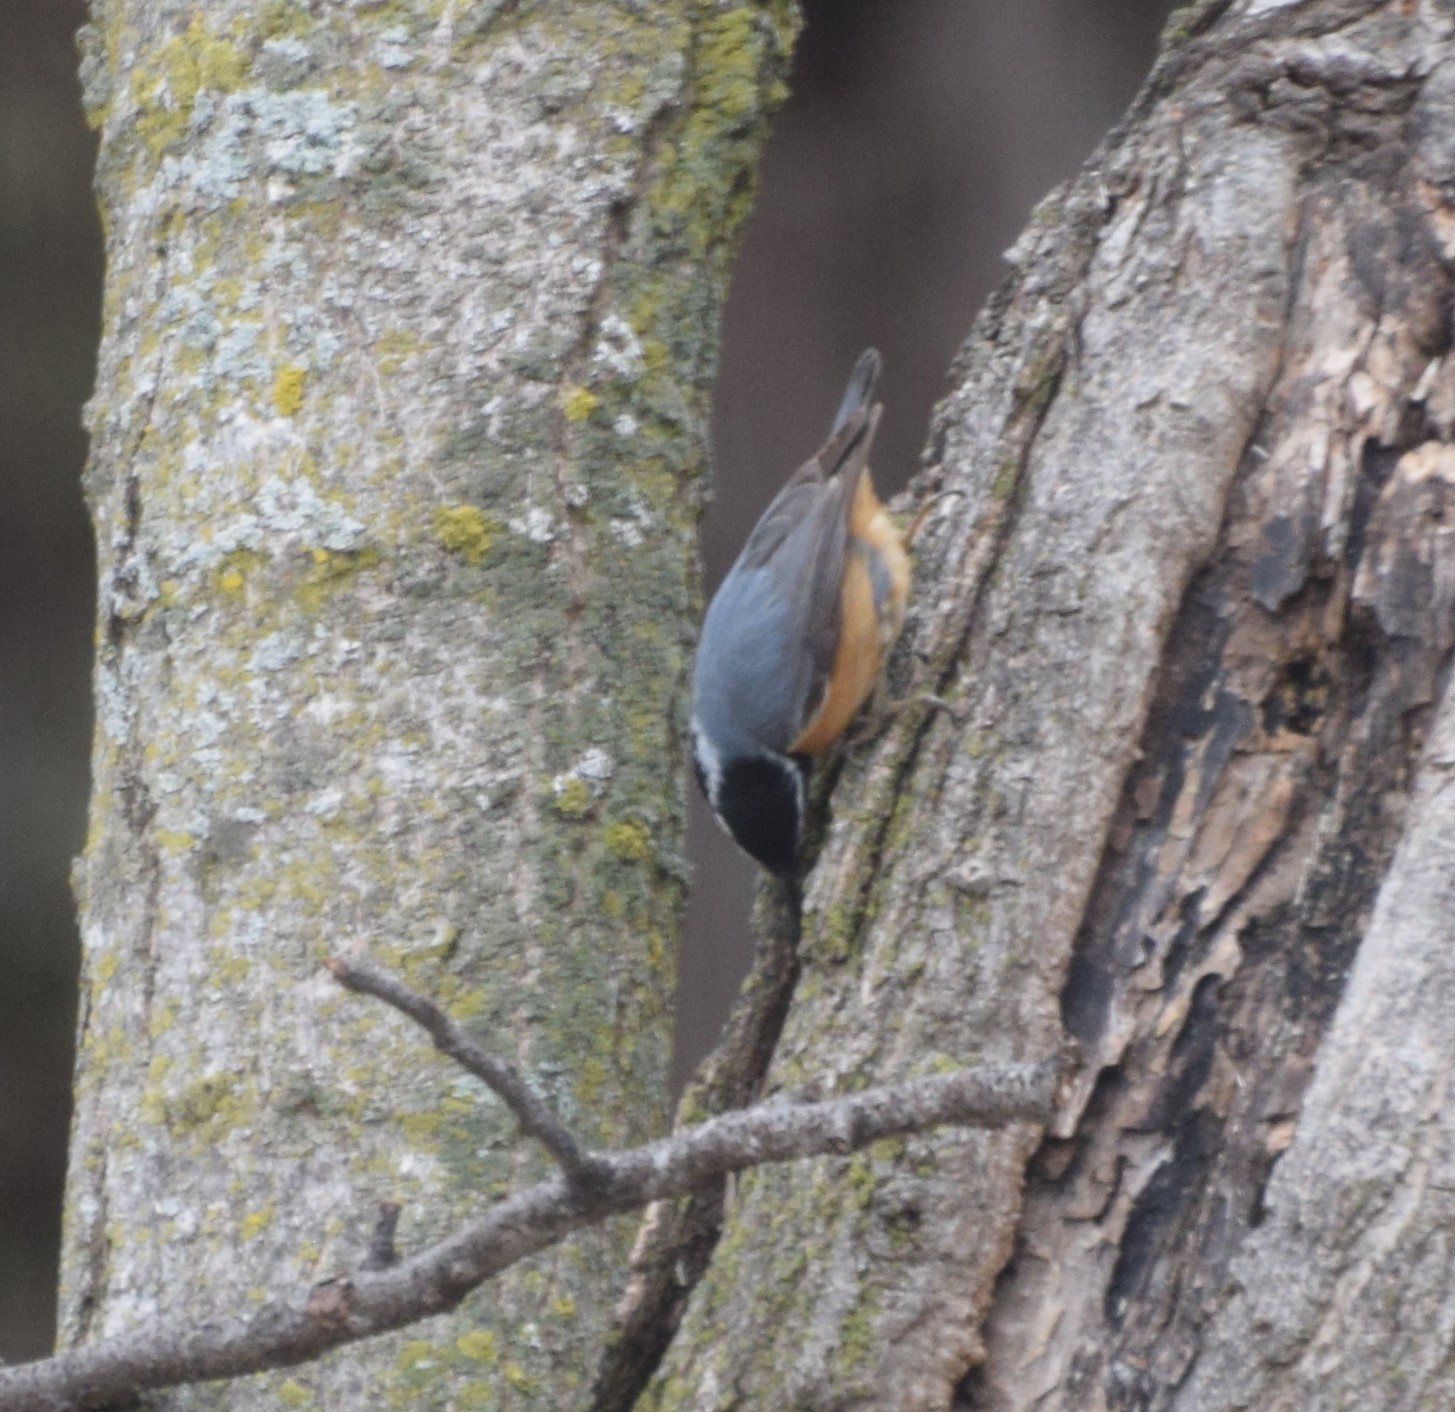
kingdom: Animalia
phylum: Chordata
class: Aves
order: Passeriformes
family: Sittidae
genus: Sitta
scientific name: Sitta canadensis
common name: Red-breasted nuthatch
